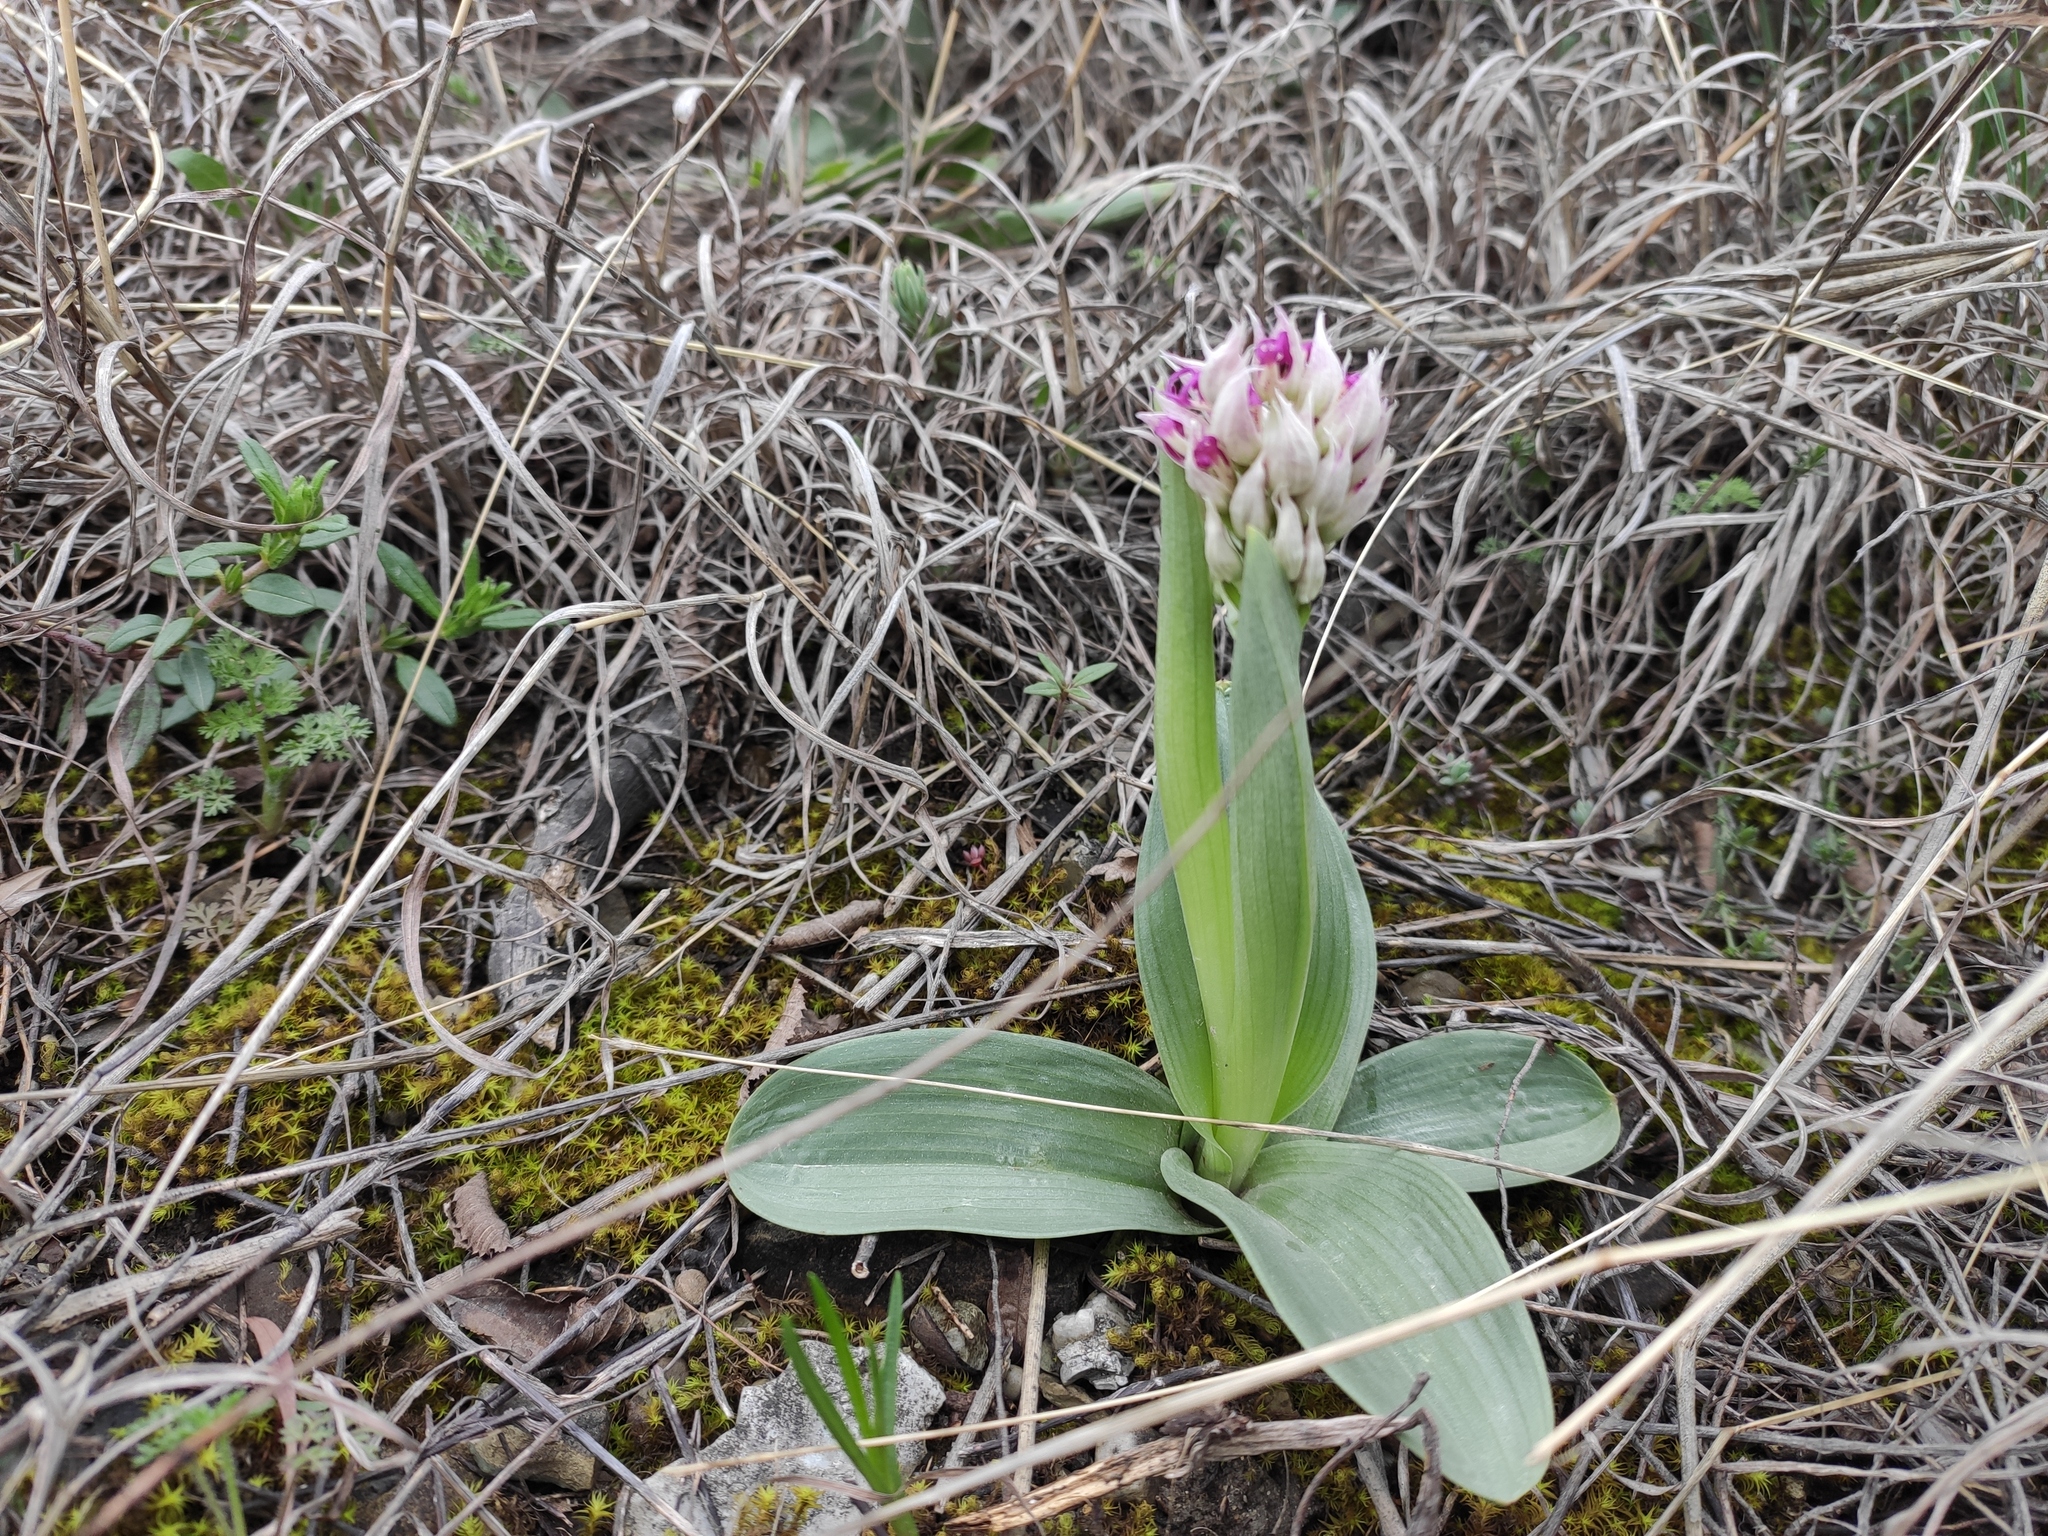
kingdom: Plantae
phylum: Tracheophyta
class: Liliopsida
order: Asparagales
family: Orchidaceae
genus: Orchis
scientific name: Orchis simia
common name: Monkey orchid
